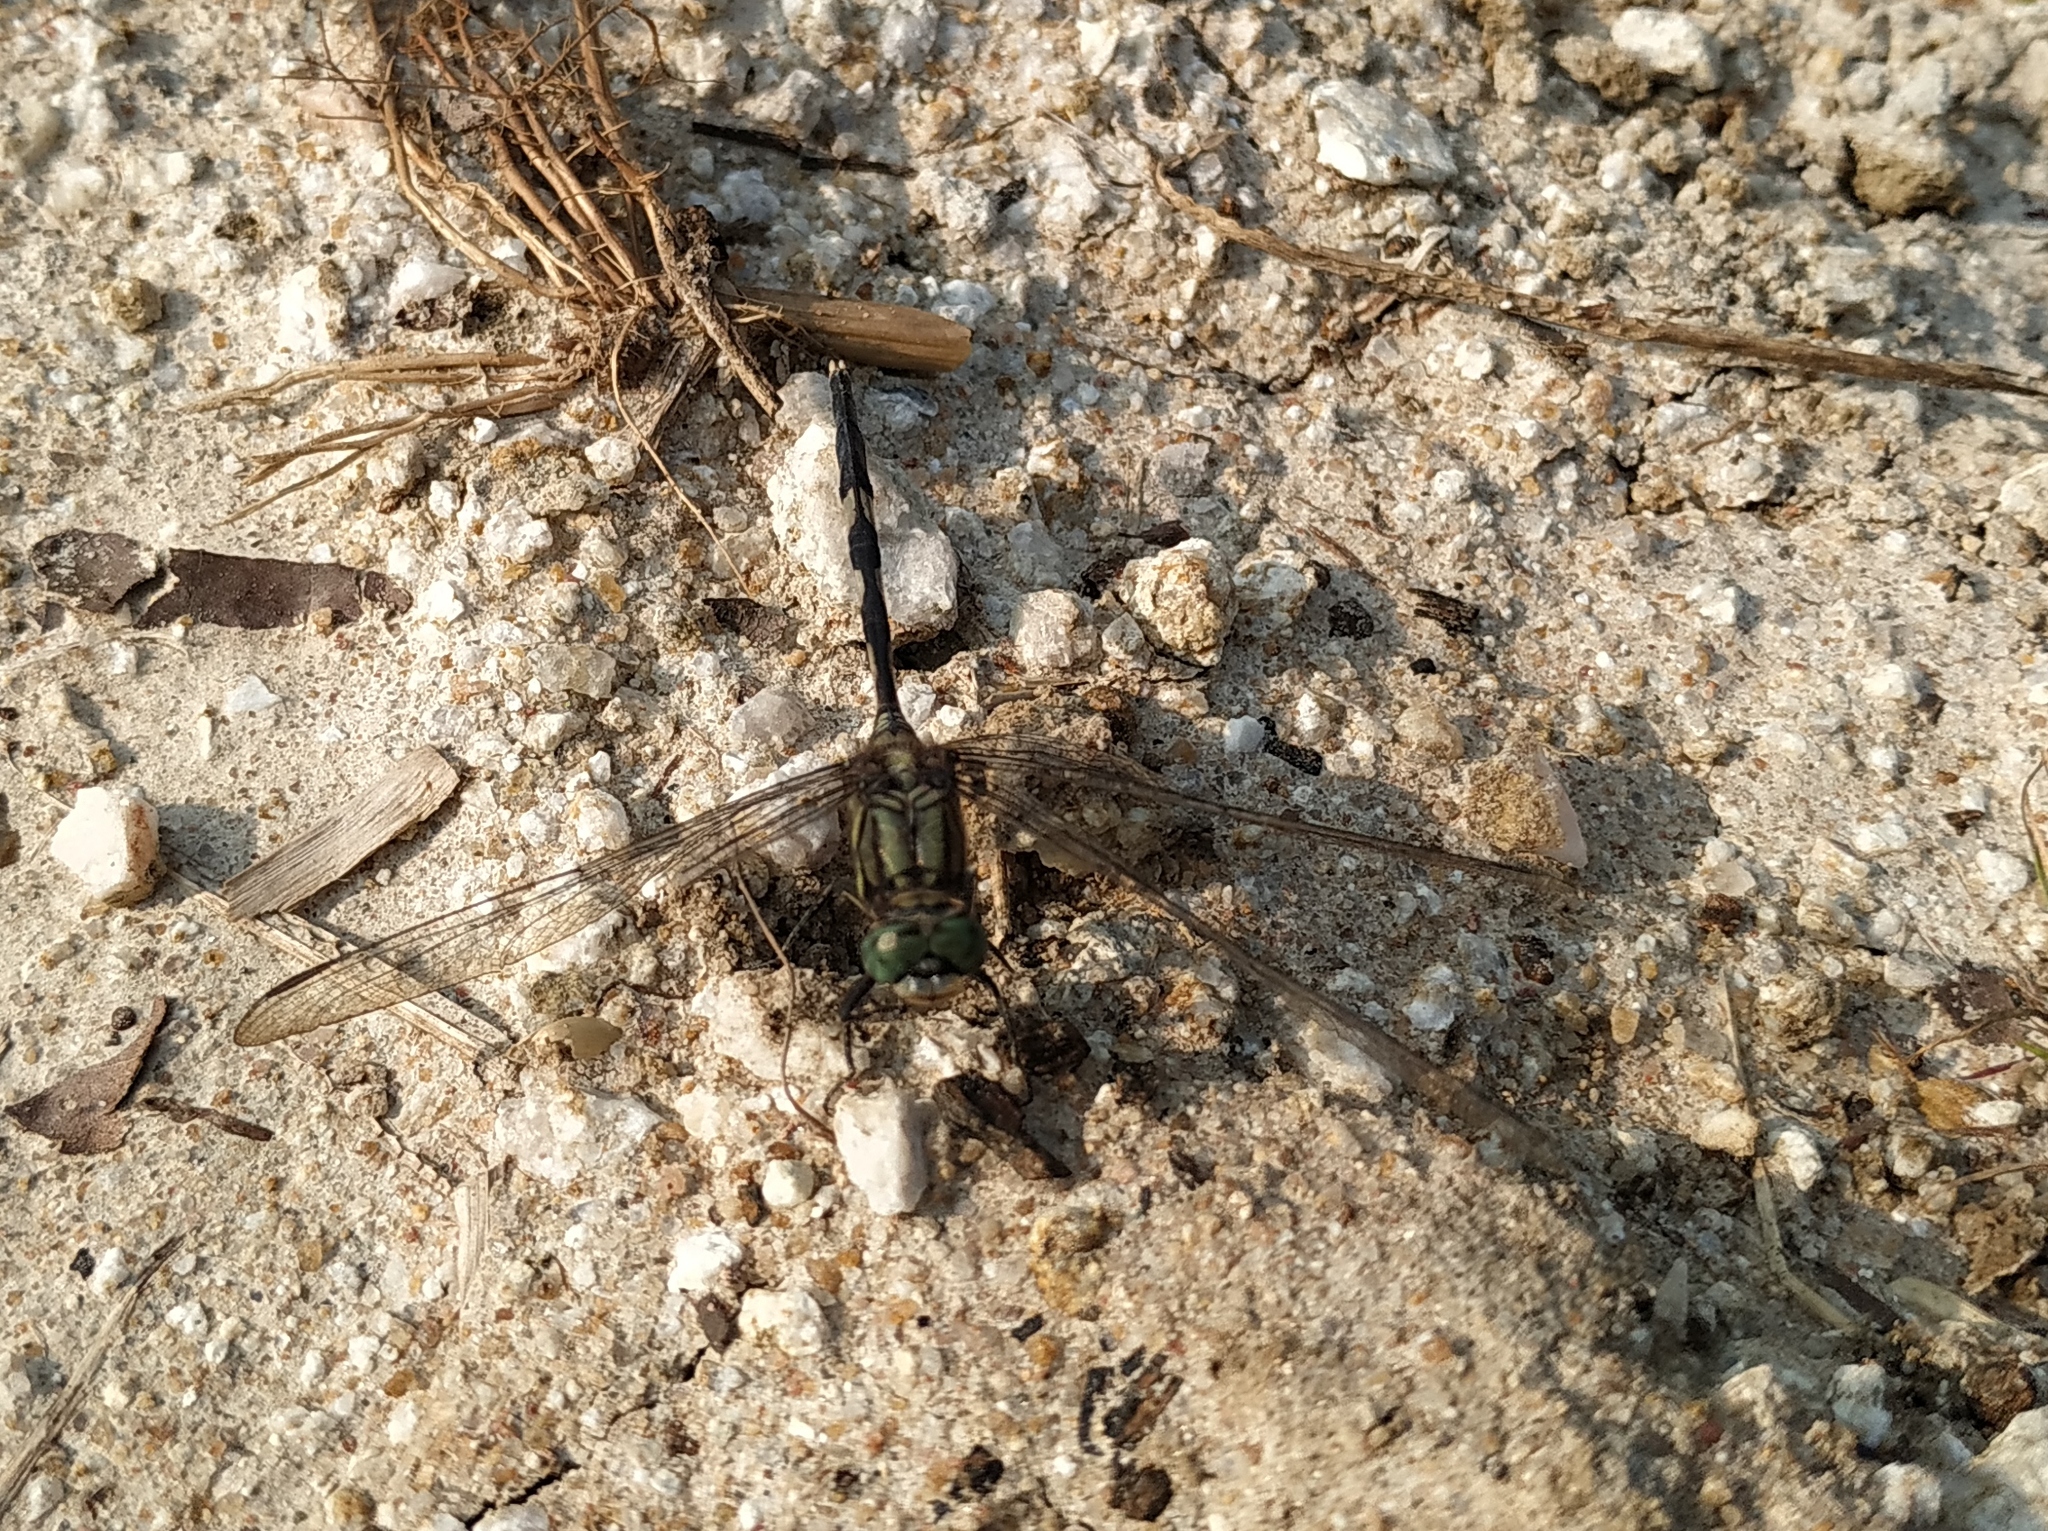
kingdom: Animalia
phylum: Arthropoda
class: Insecta
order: Odonata
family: Libellulidae
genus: Orthetrum
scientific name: Orthetrum sabina
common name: Slender skimmer
